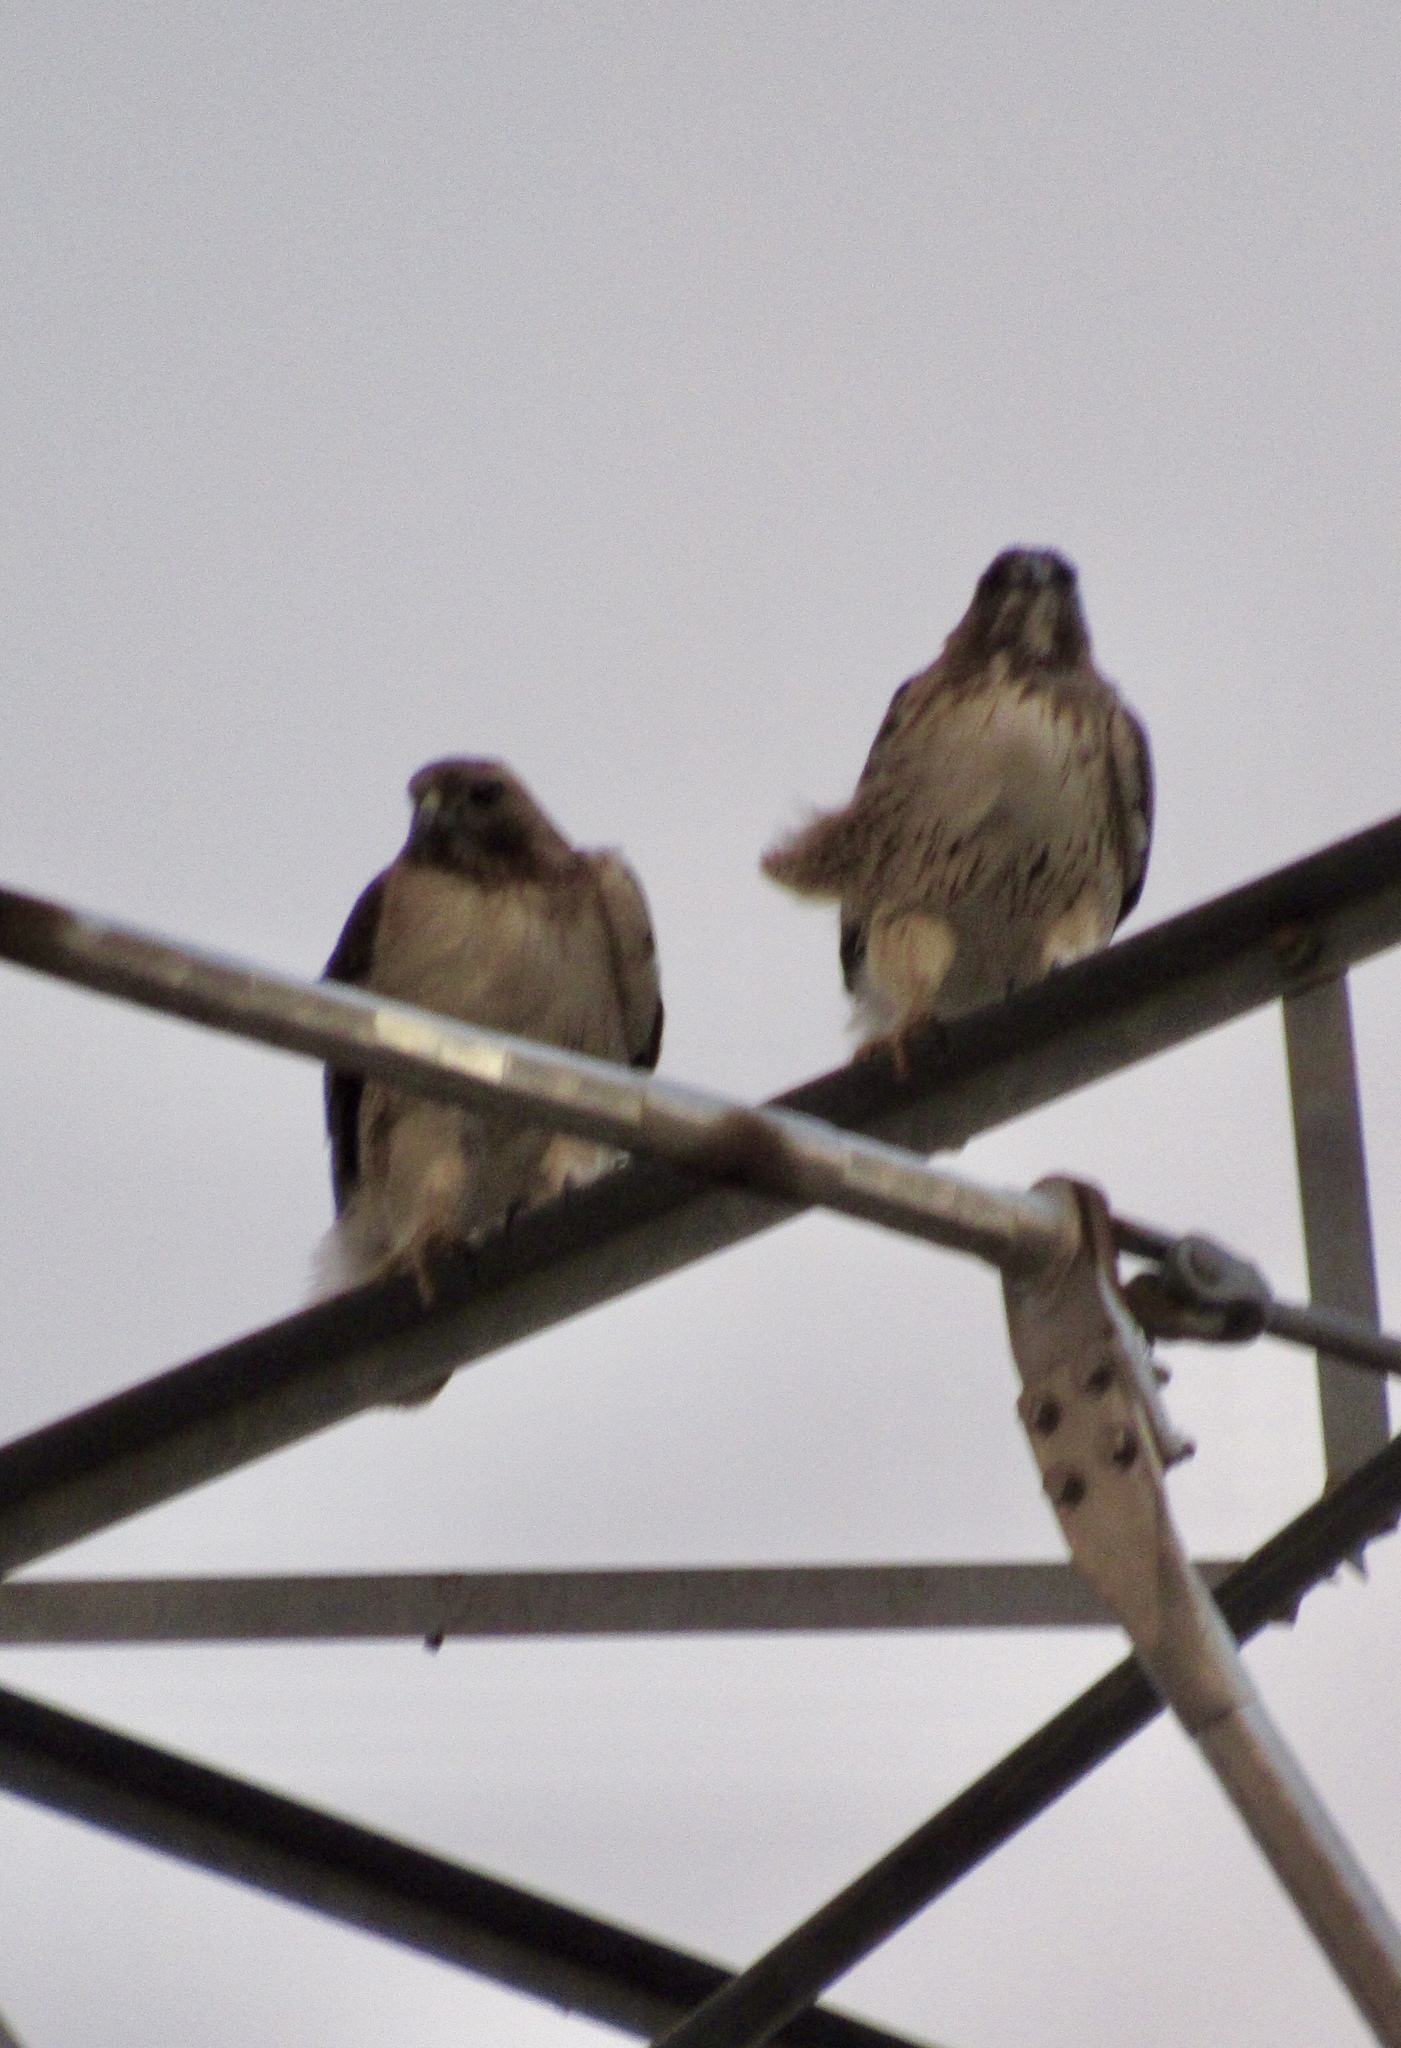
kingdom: Animalia
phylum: Chordata
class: Aves
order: Accipitriformes
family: Accipitridae
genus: Buteo
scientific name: Buteo jamaicensis
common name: Red-tailed hawk
